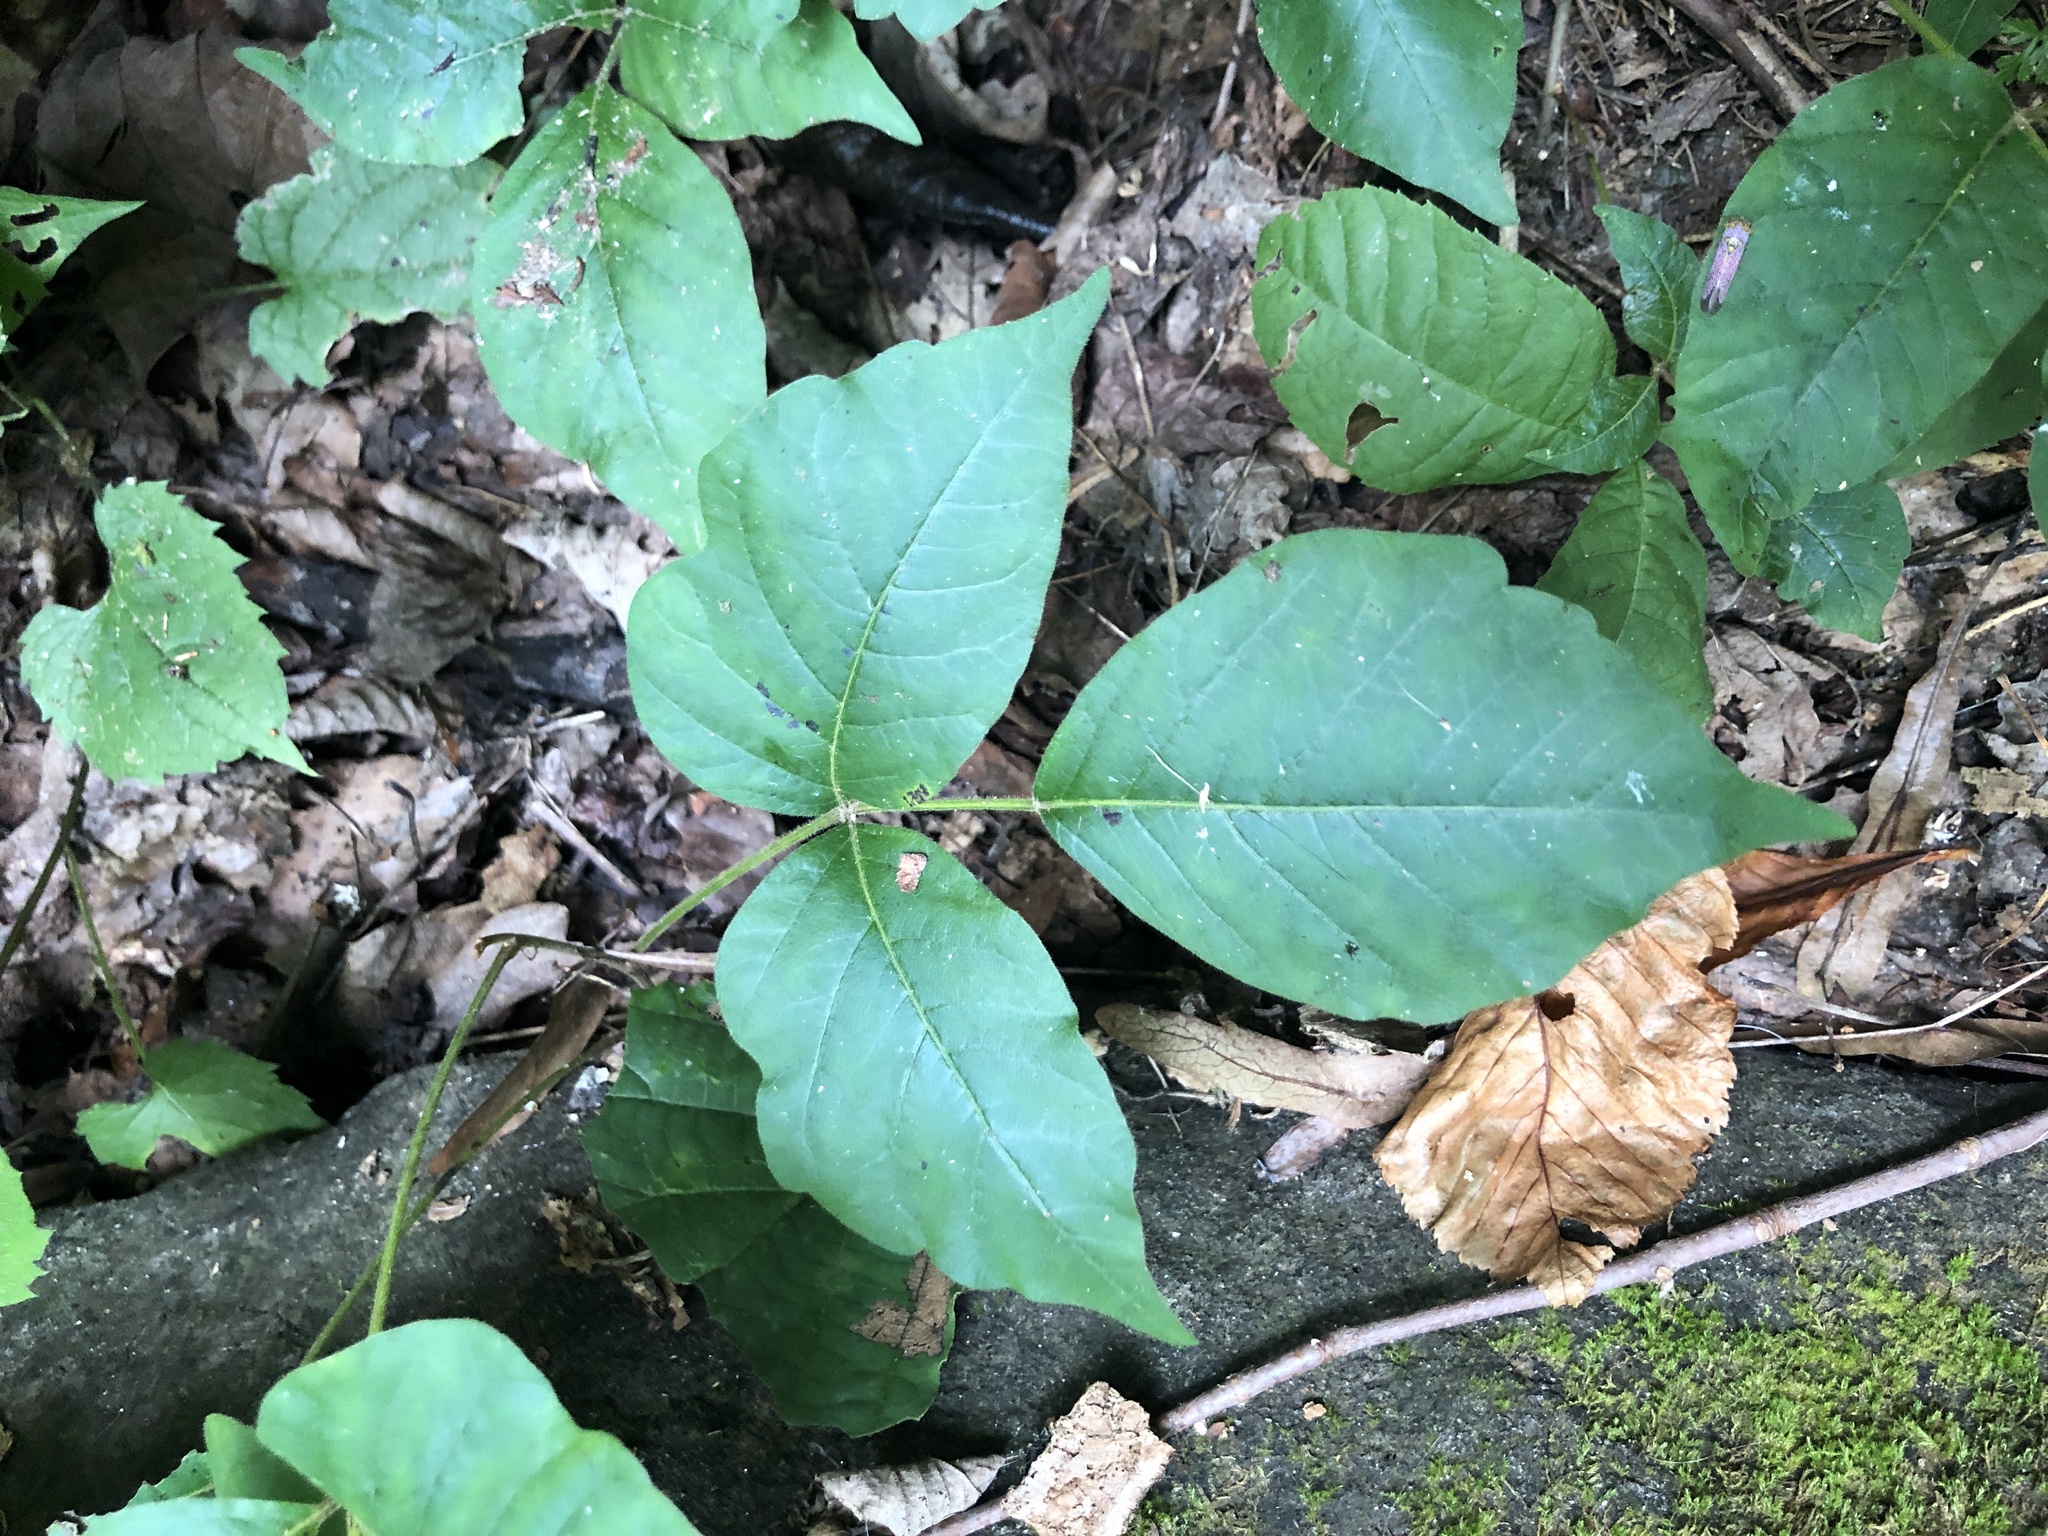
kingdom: Plantae
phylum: Tracheophyta
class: Magnoliopsida
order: Sapindales
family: Anacardiaceae
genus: Toxicodendron
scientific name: Toxicodendron radicans
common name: Poison ivy
